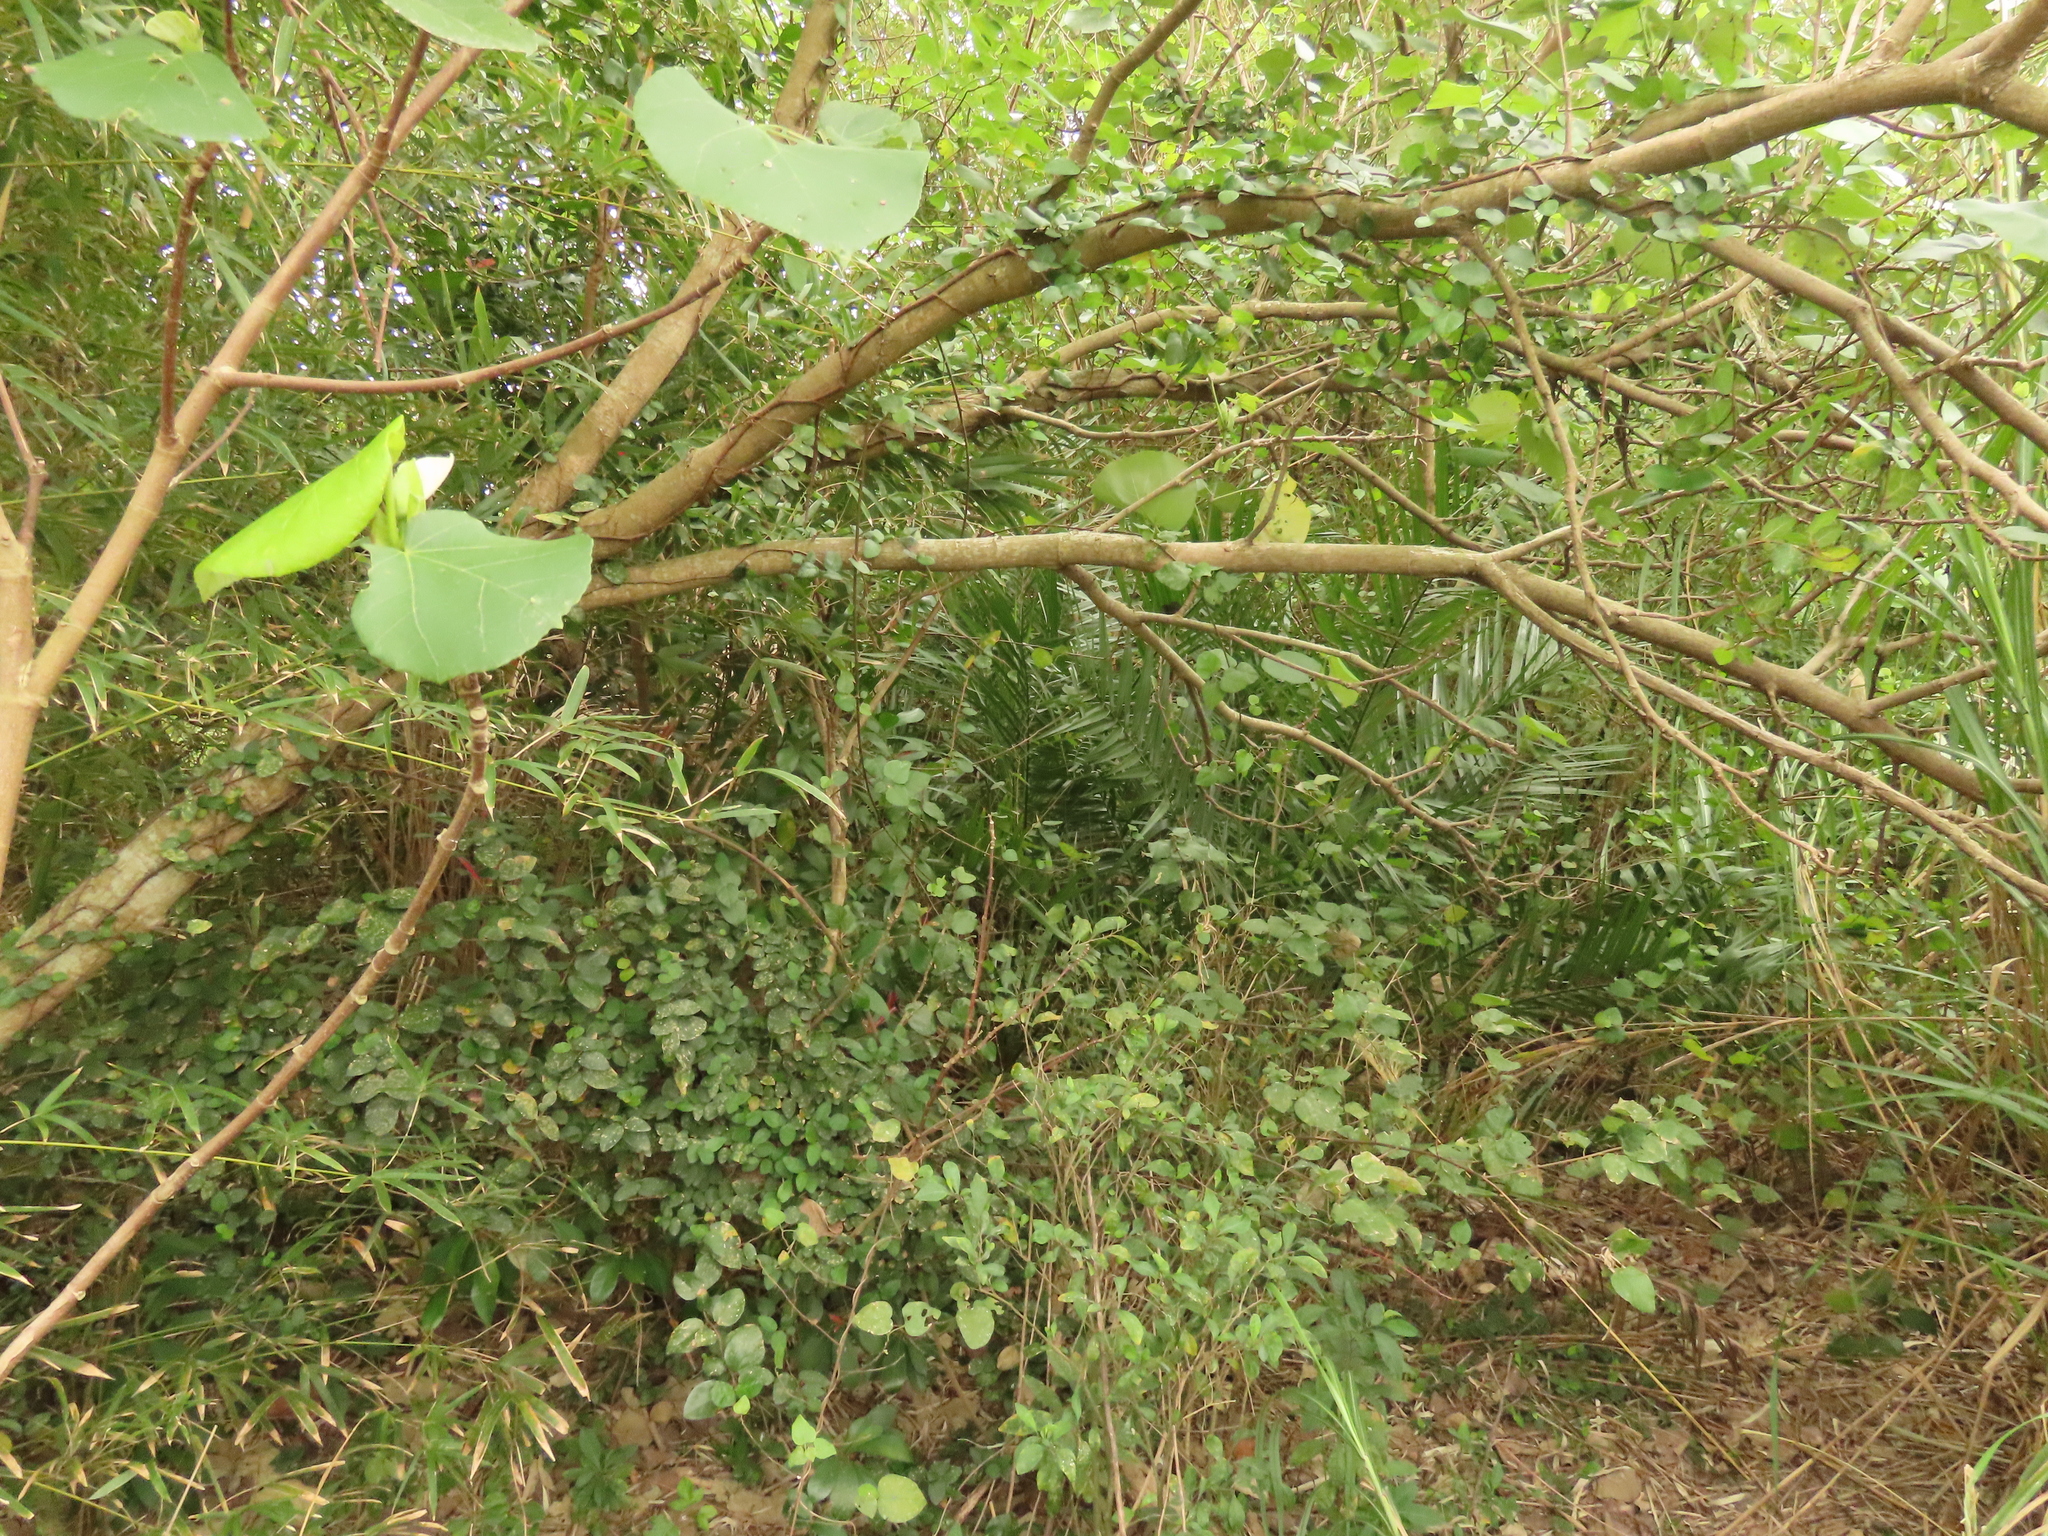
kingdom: Plantae
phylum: Tracheophyta
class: Magnoliopsida
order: Rosales
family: Moraceae
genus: Ficus
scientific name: Ficus pumila
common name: Climbingfig
